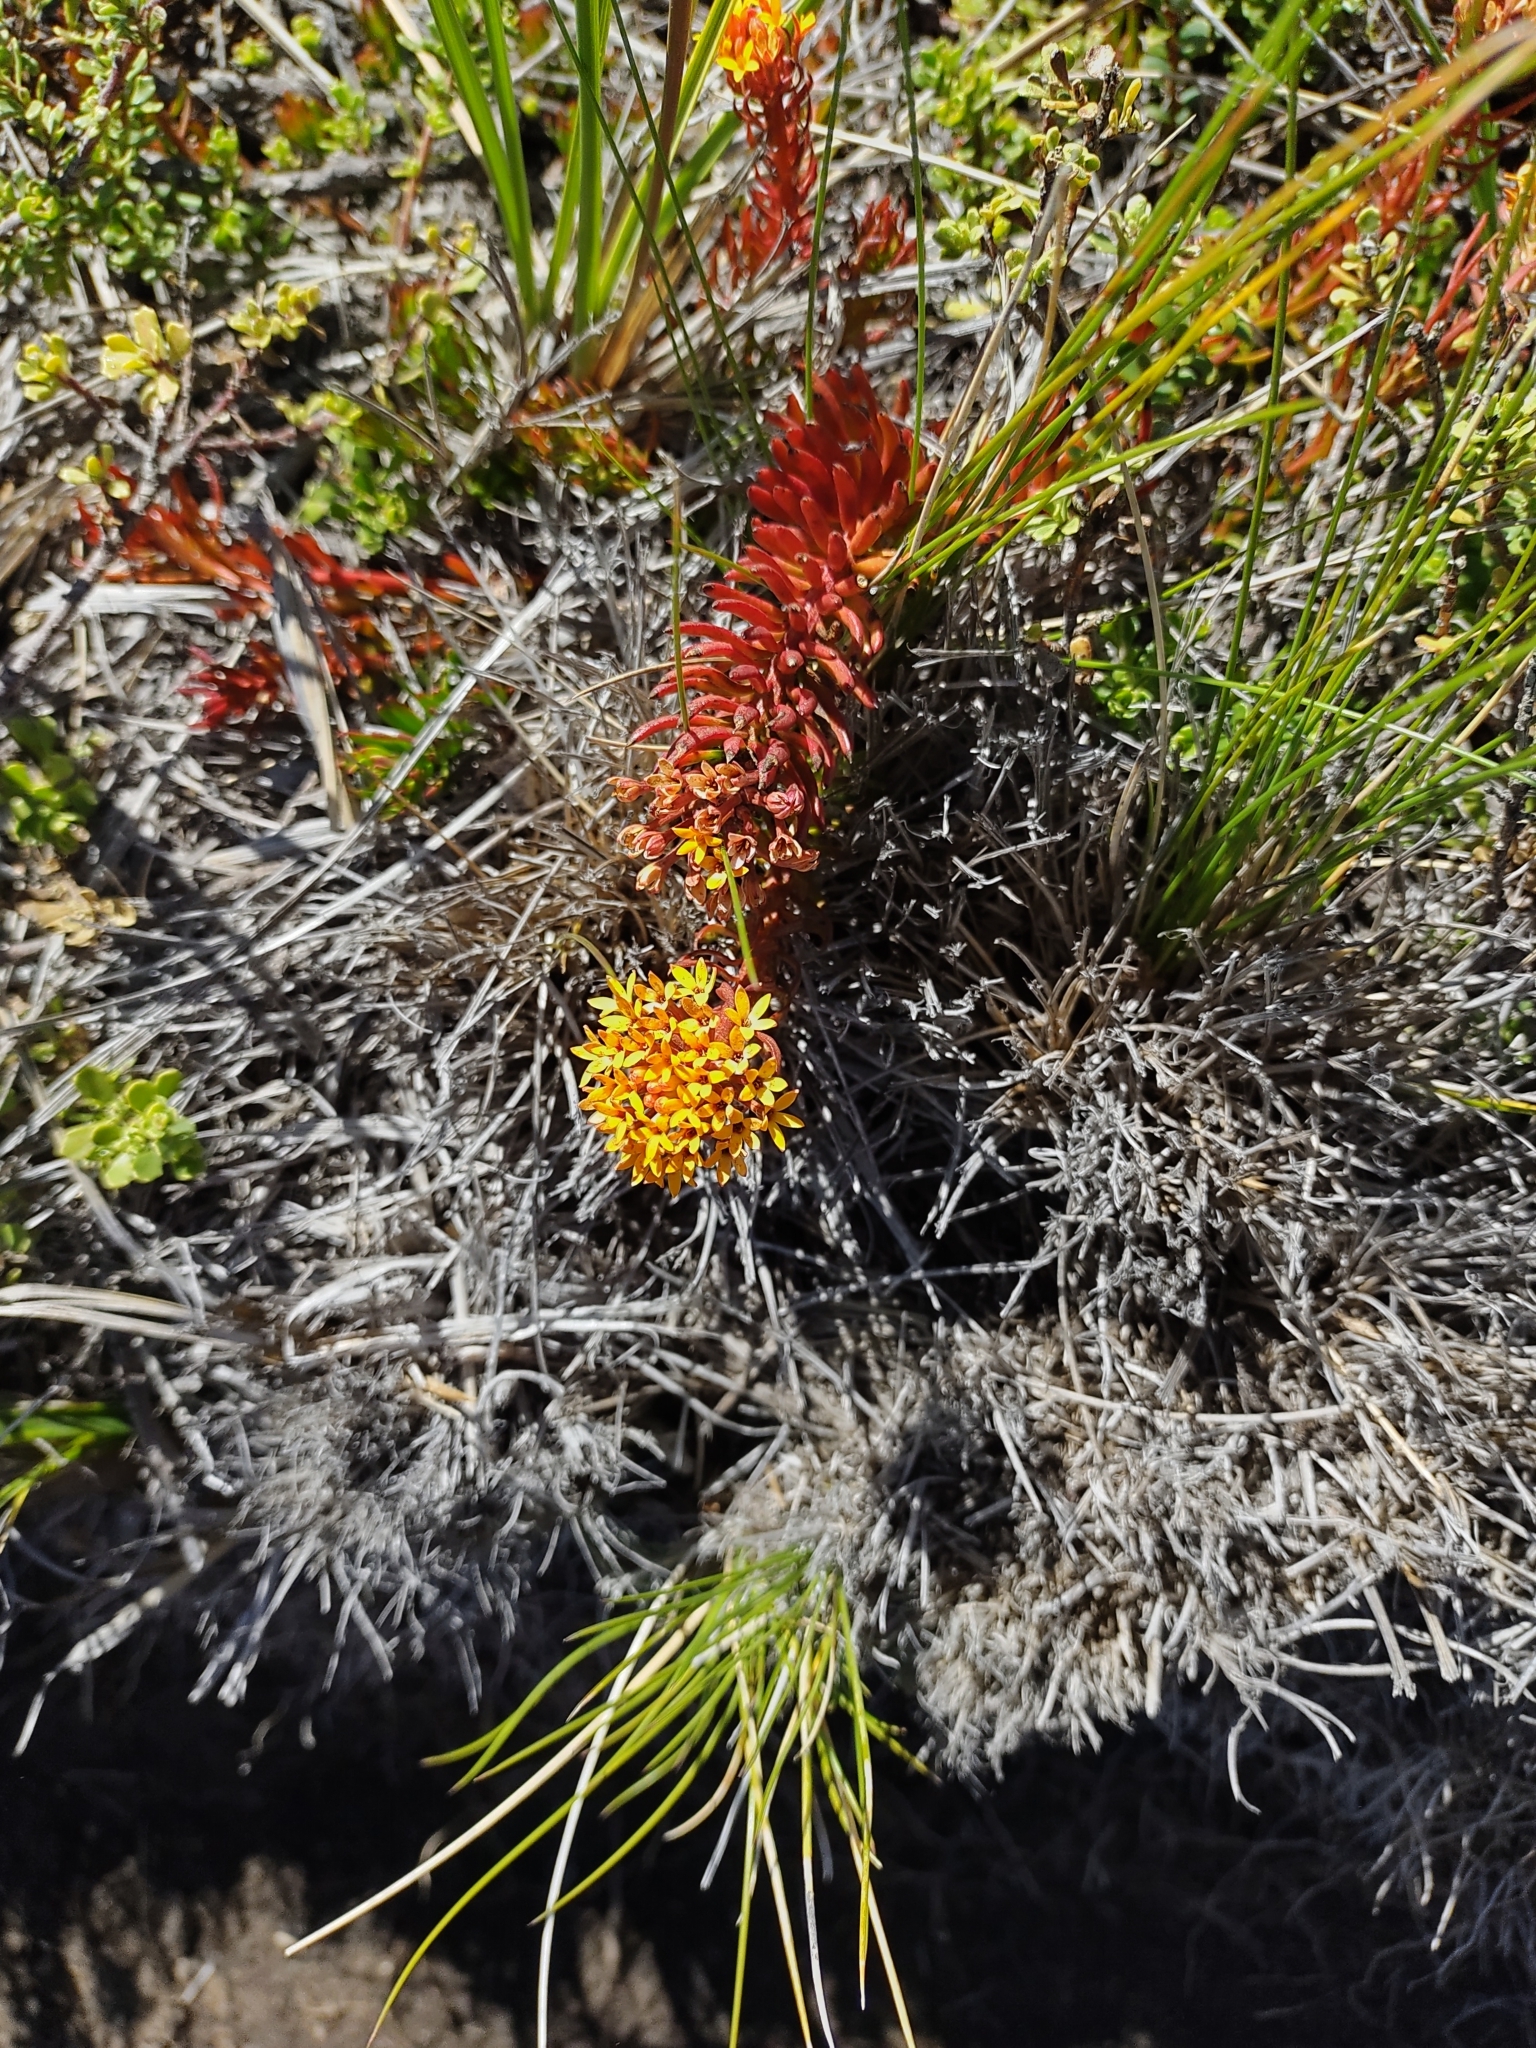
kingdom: Plantae
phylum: Tracheophyta
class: Magnoliopsida
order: Santalales
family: Schoepfiaceae
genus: Quinchamalium
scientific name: Quinchamalium chilense
